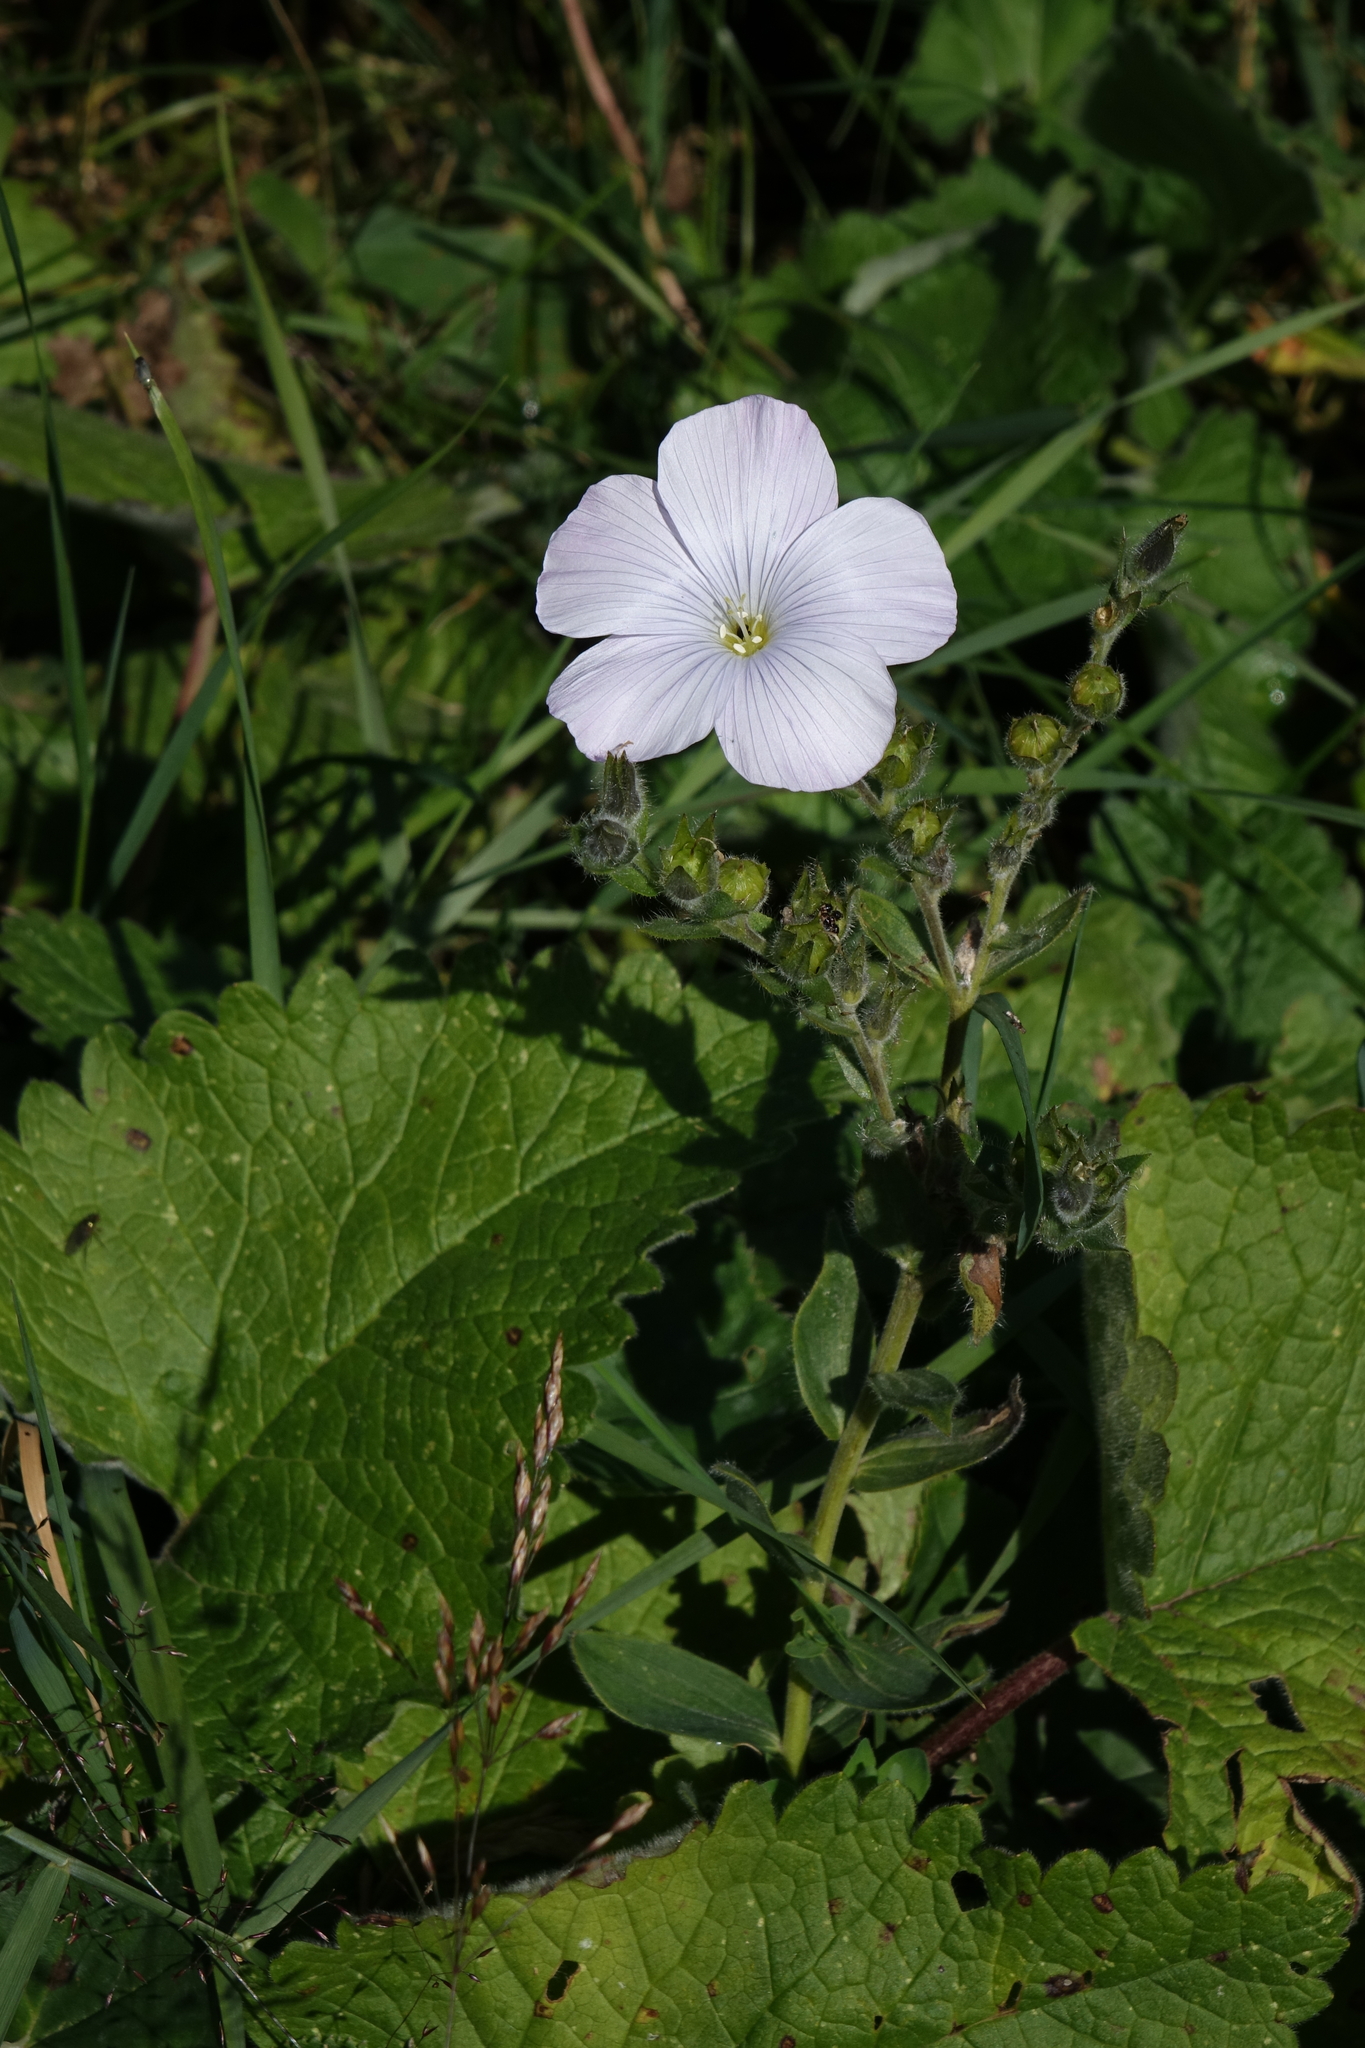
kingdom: Plantae
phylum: Tracheophyta
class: Magnoliopsida
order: Malpighiales
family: Linaceae
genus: Linum
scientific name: Linum hypericifolium
